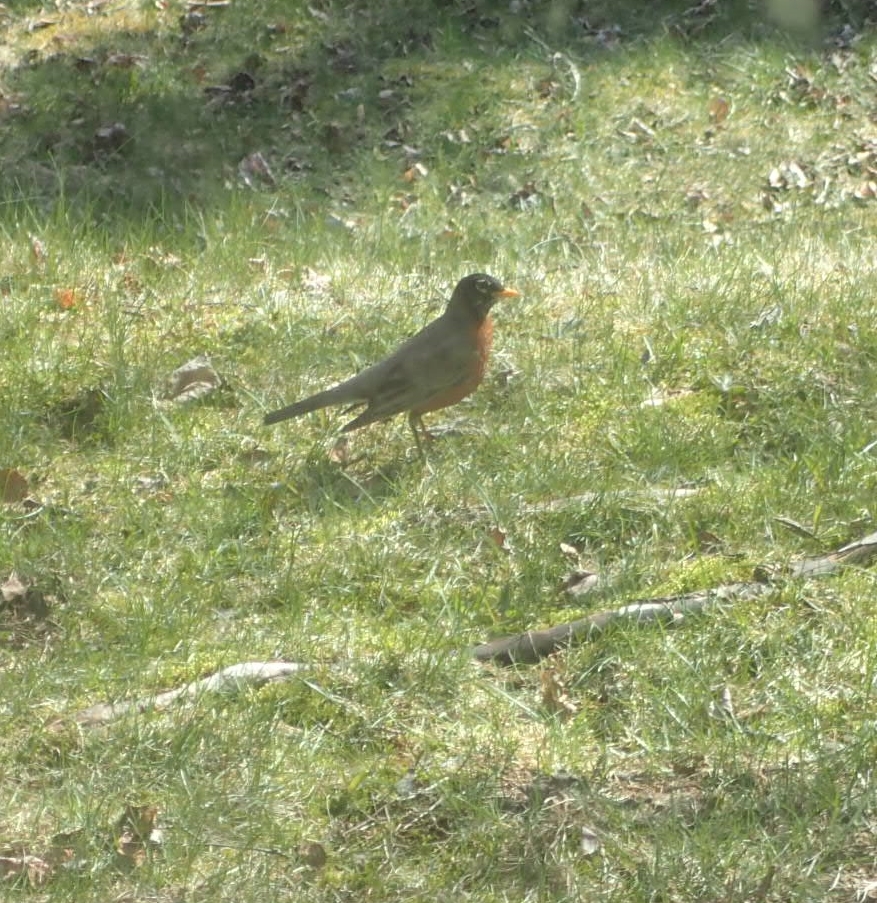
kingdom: Animalia
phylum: Chordata
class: Aves
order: Passeriformes
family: Turdidae
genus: Turdus
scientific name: Turdus migratorius
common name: American robin
